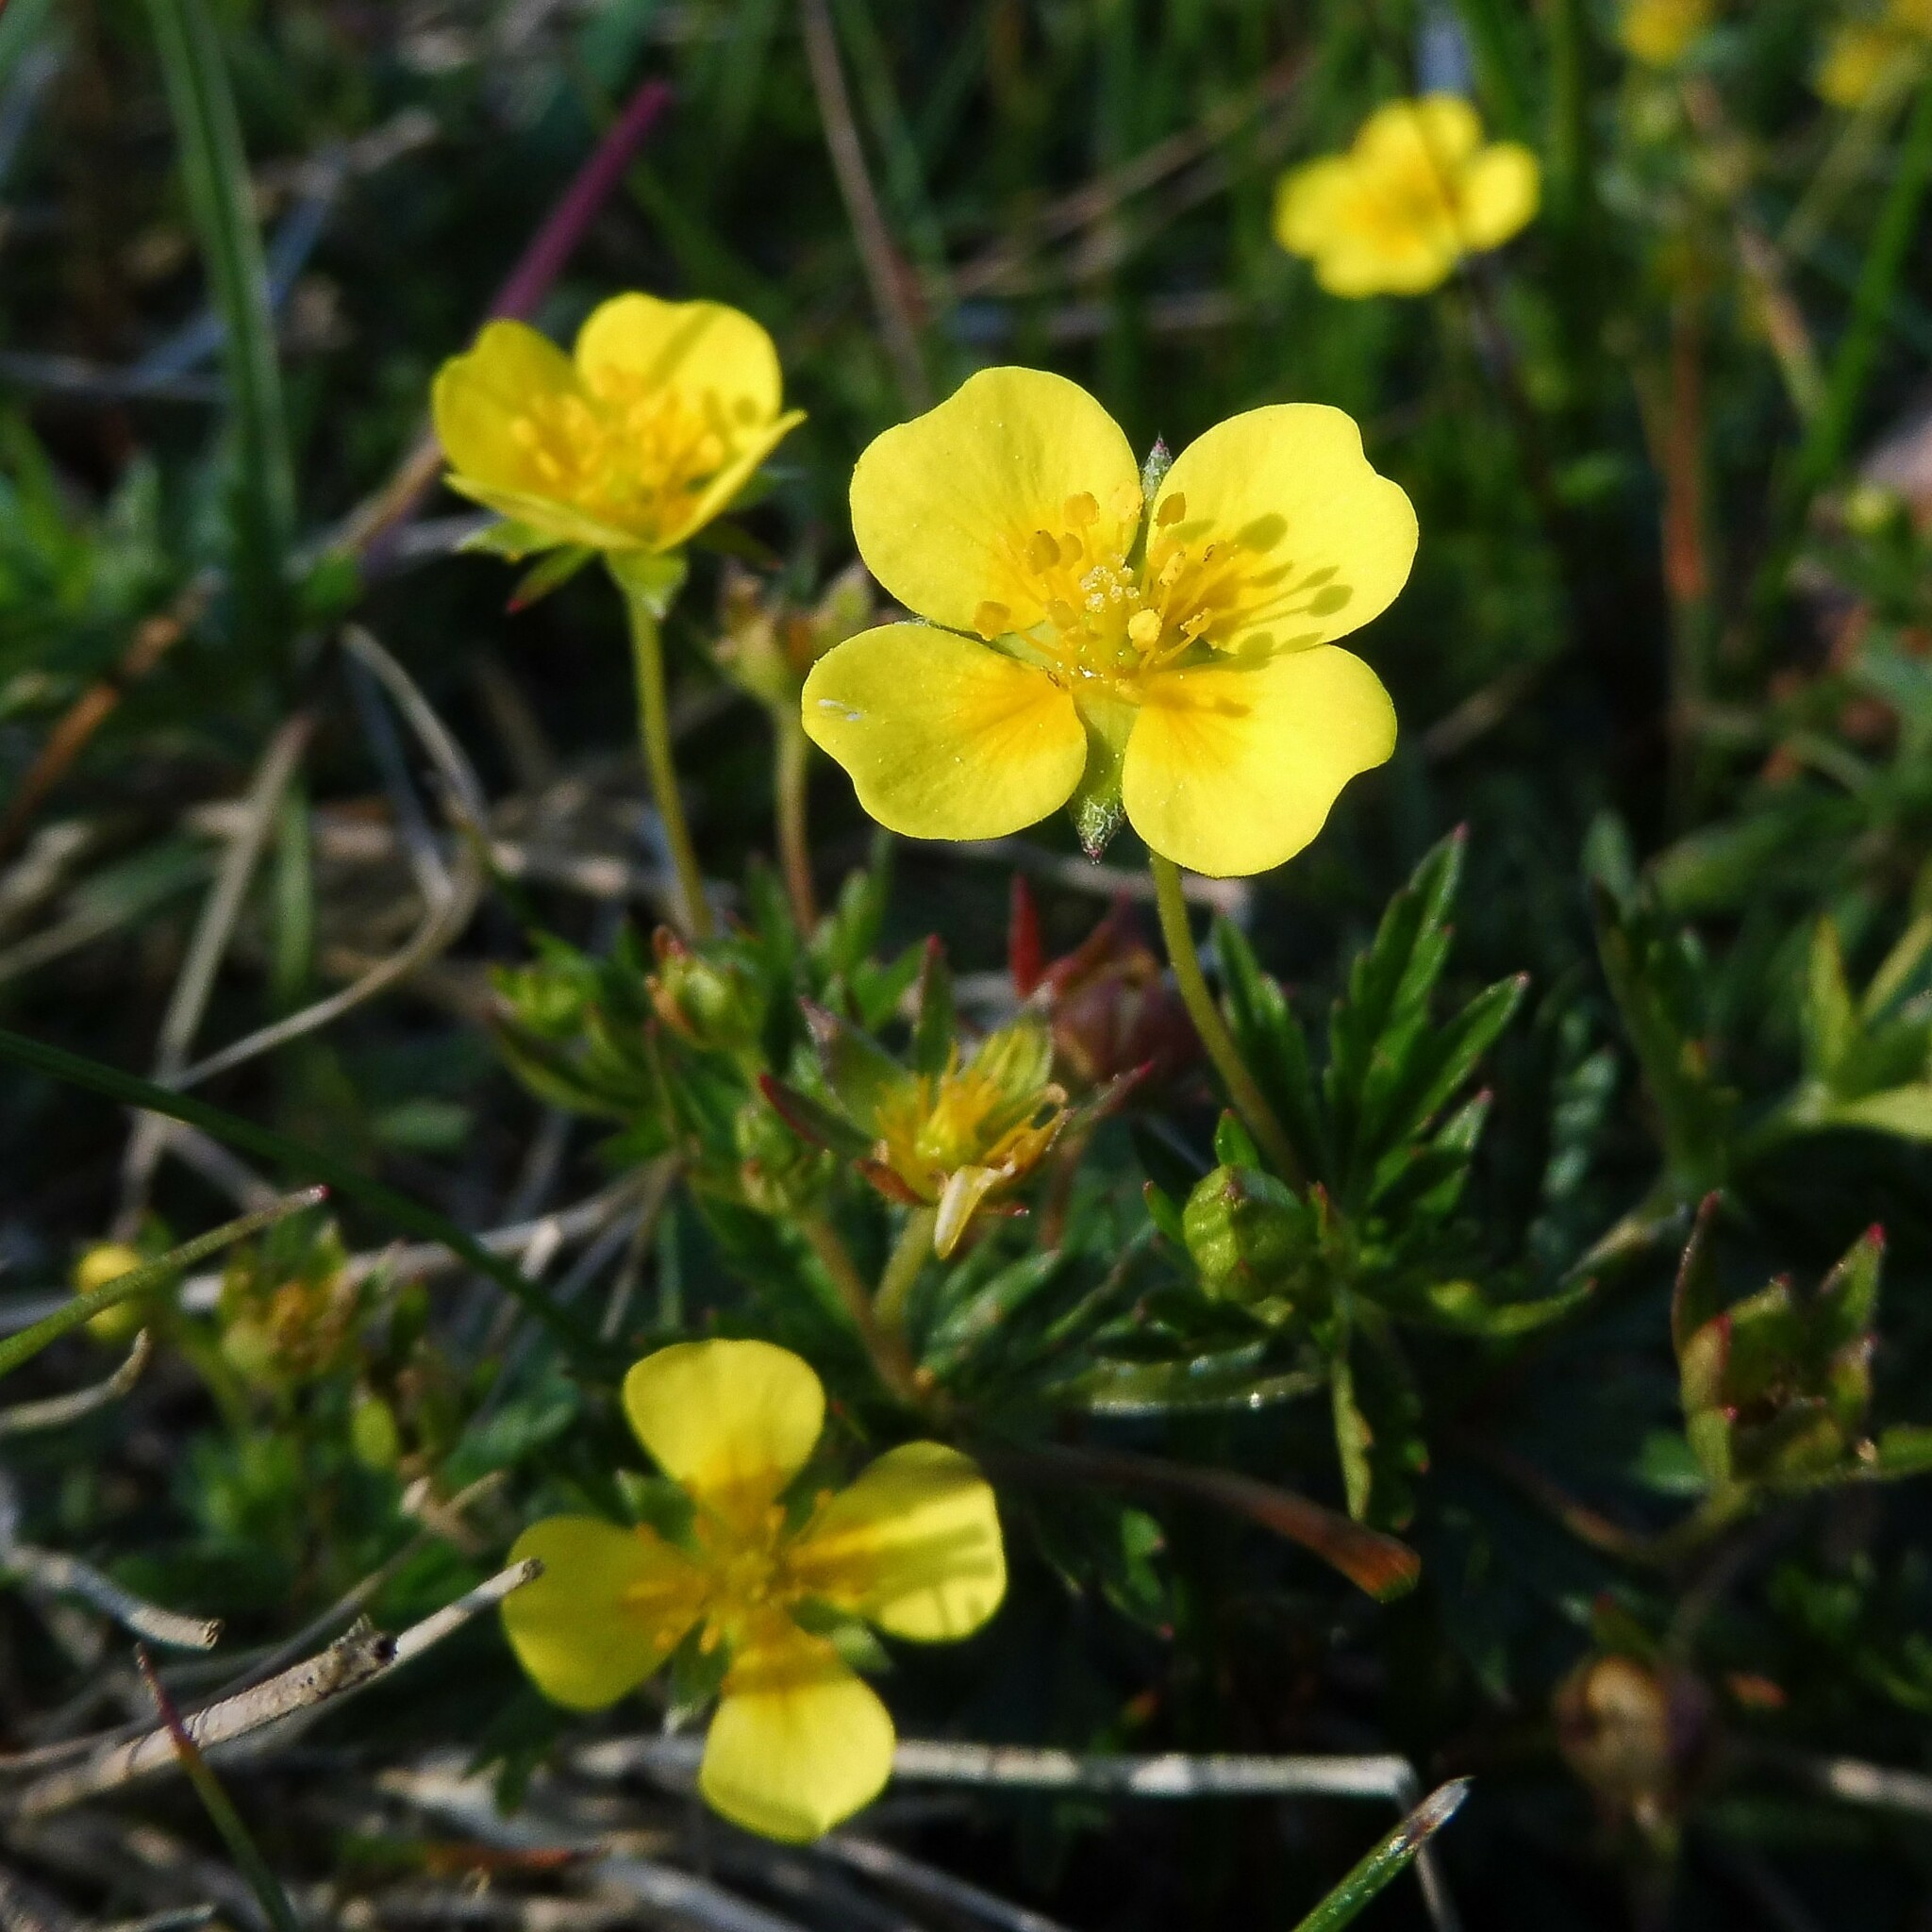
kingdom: Plantae
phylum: Tracheophyta
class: Magnoliopsida
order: Rosales
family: Rosaceae
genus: Potentilla
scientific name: Potentilla erecta
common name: Tormentil
